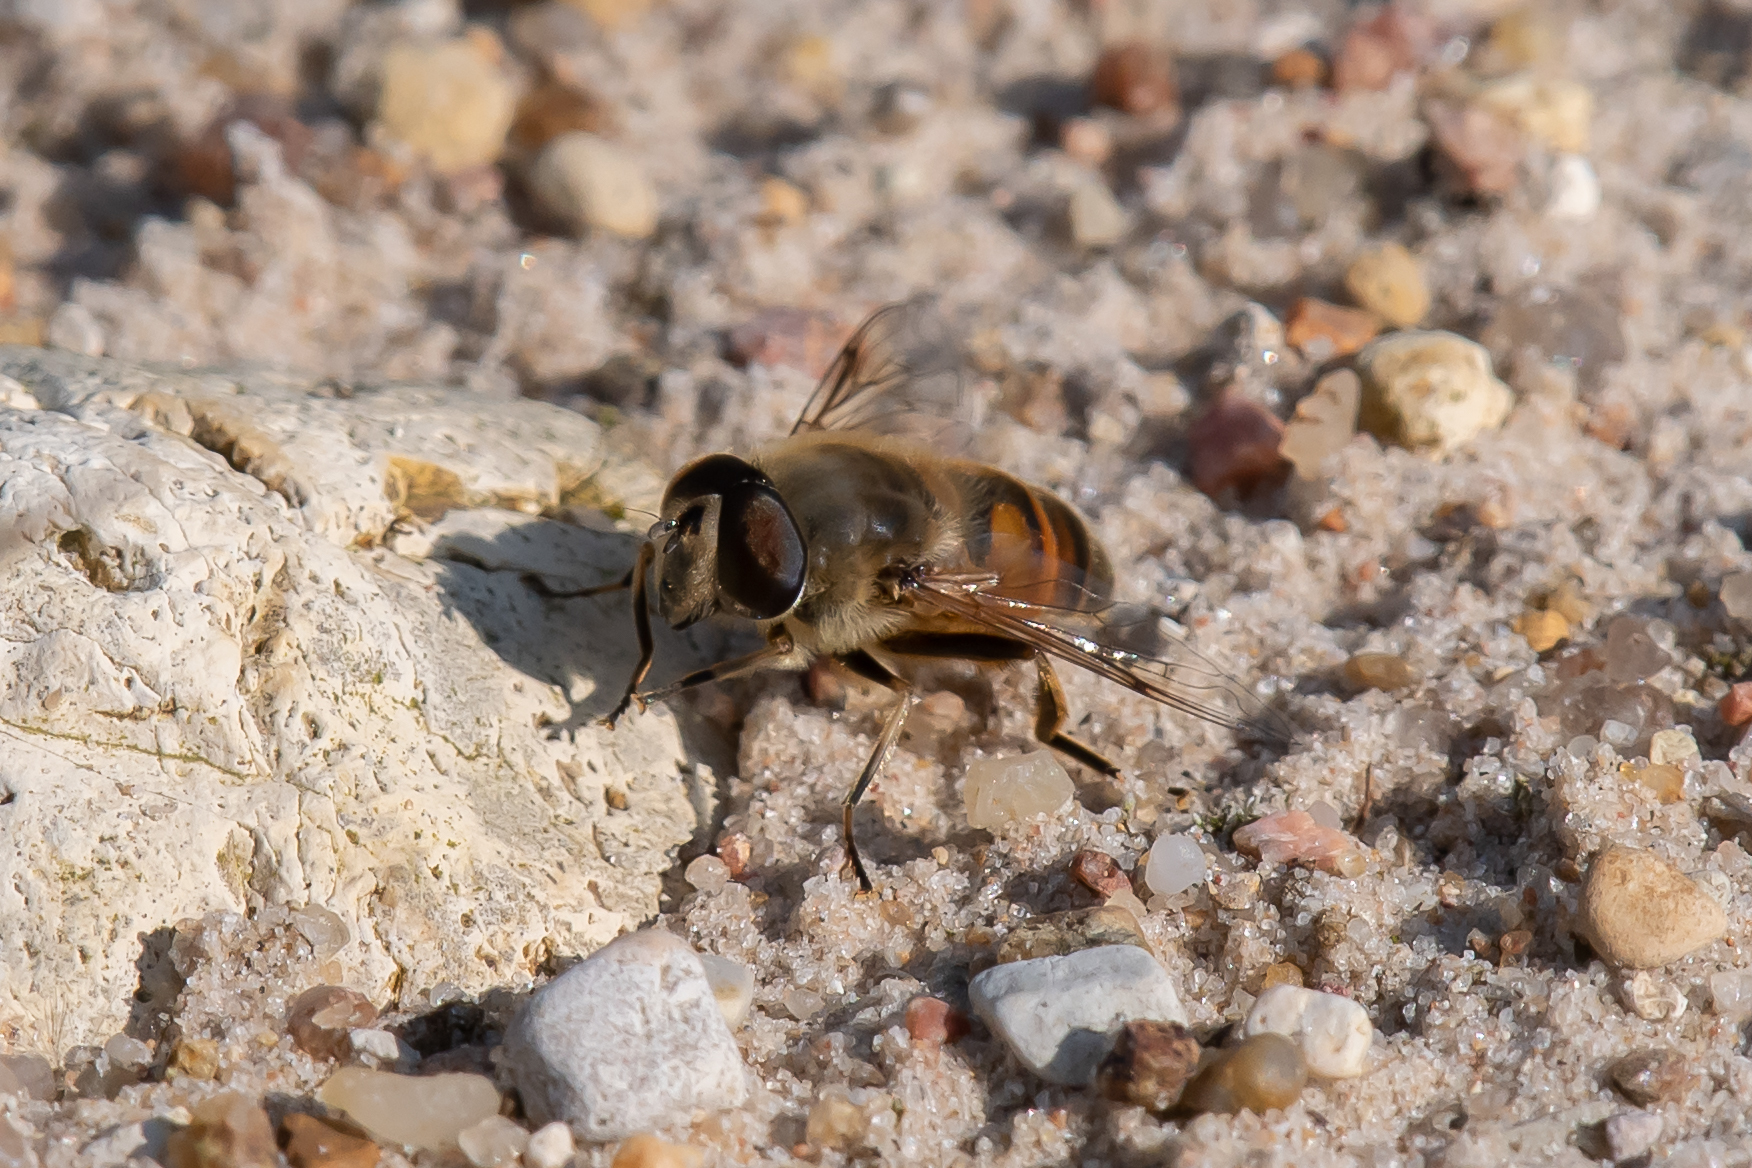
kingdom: Animalia
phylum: Arthropoda
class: Insecta
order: Diptera
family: Syrphidae
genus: Eristalis
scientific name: Eristalis tenax
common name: Drone fly
